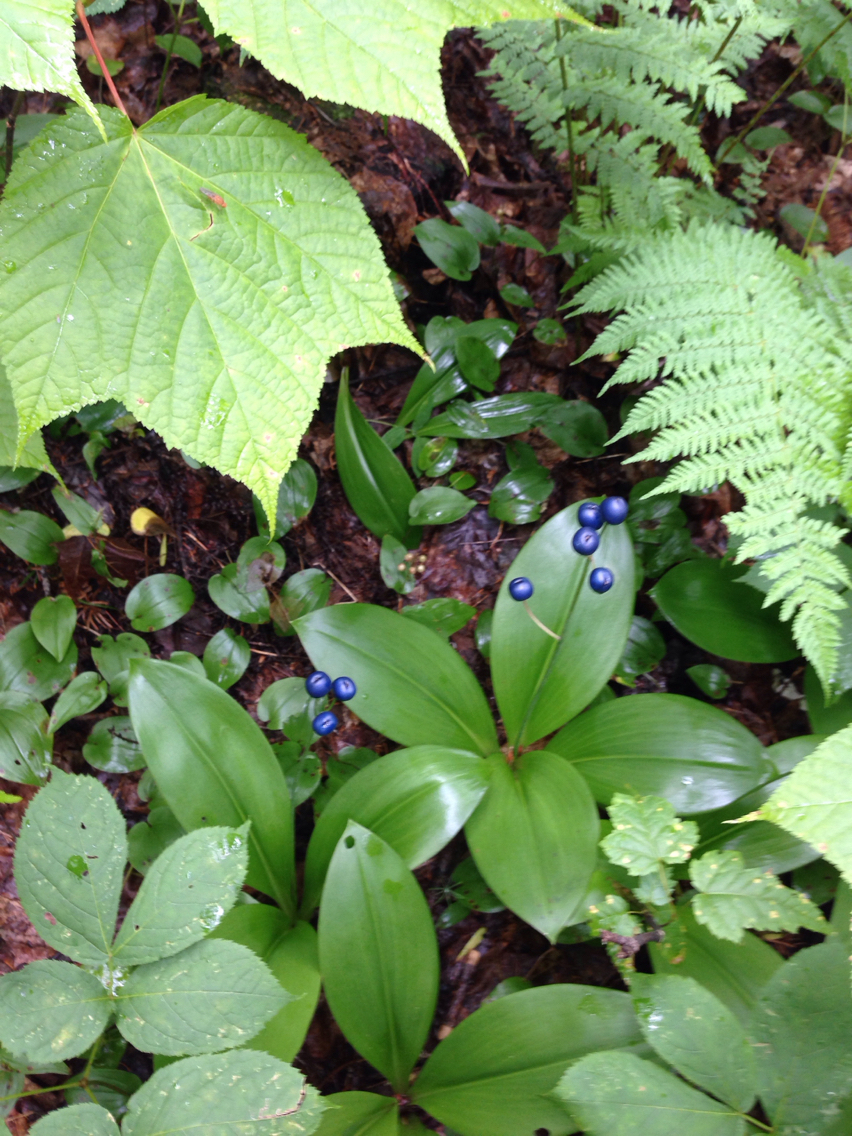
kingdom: Plantae
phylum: Tracheophyta
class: Liliopsida
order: Liliales
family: Liliaceae
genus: Clintonia
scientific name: Clintonia borealis
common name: Yellow clintonia
